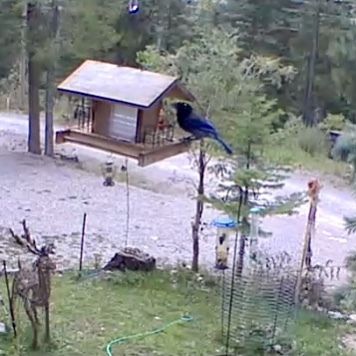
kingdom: Animalia
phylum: Chordata
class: Aves
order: Passeriformes
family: Corvidae
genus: Cyanocitta
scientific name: Cyanocitta stelleri
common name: Steller's jay
